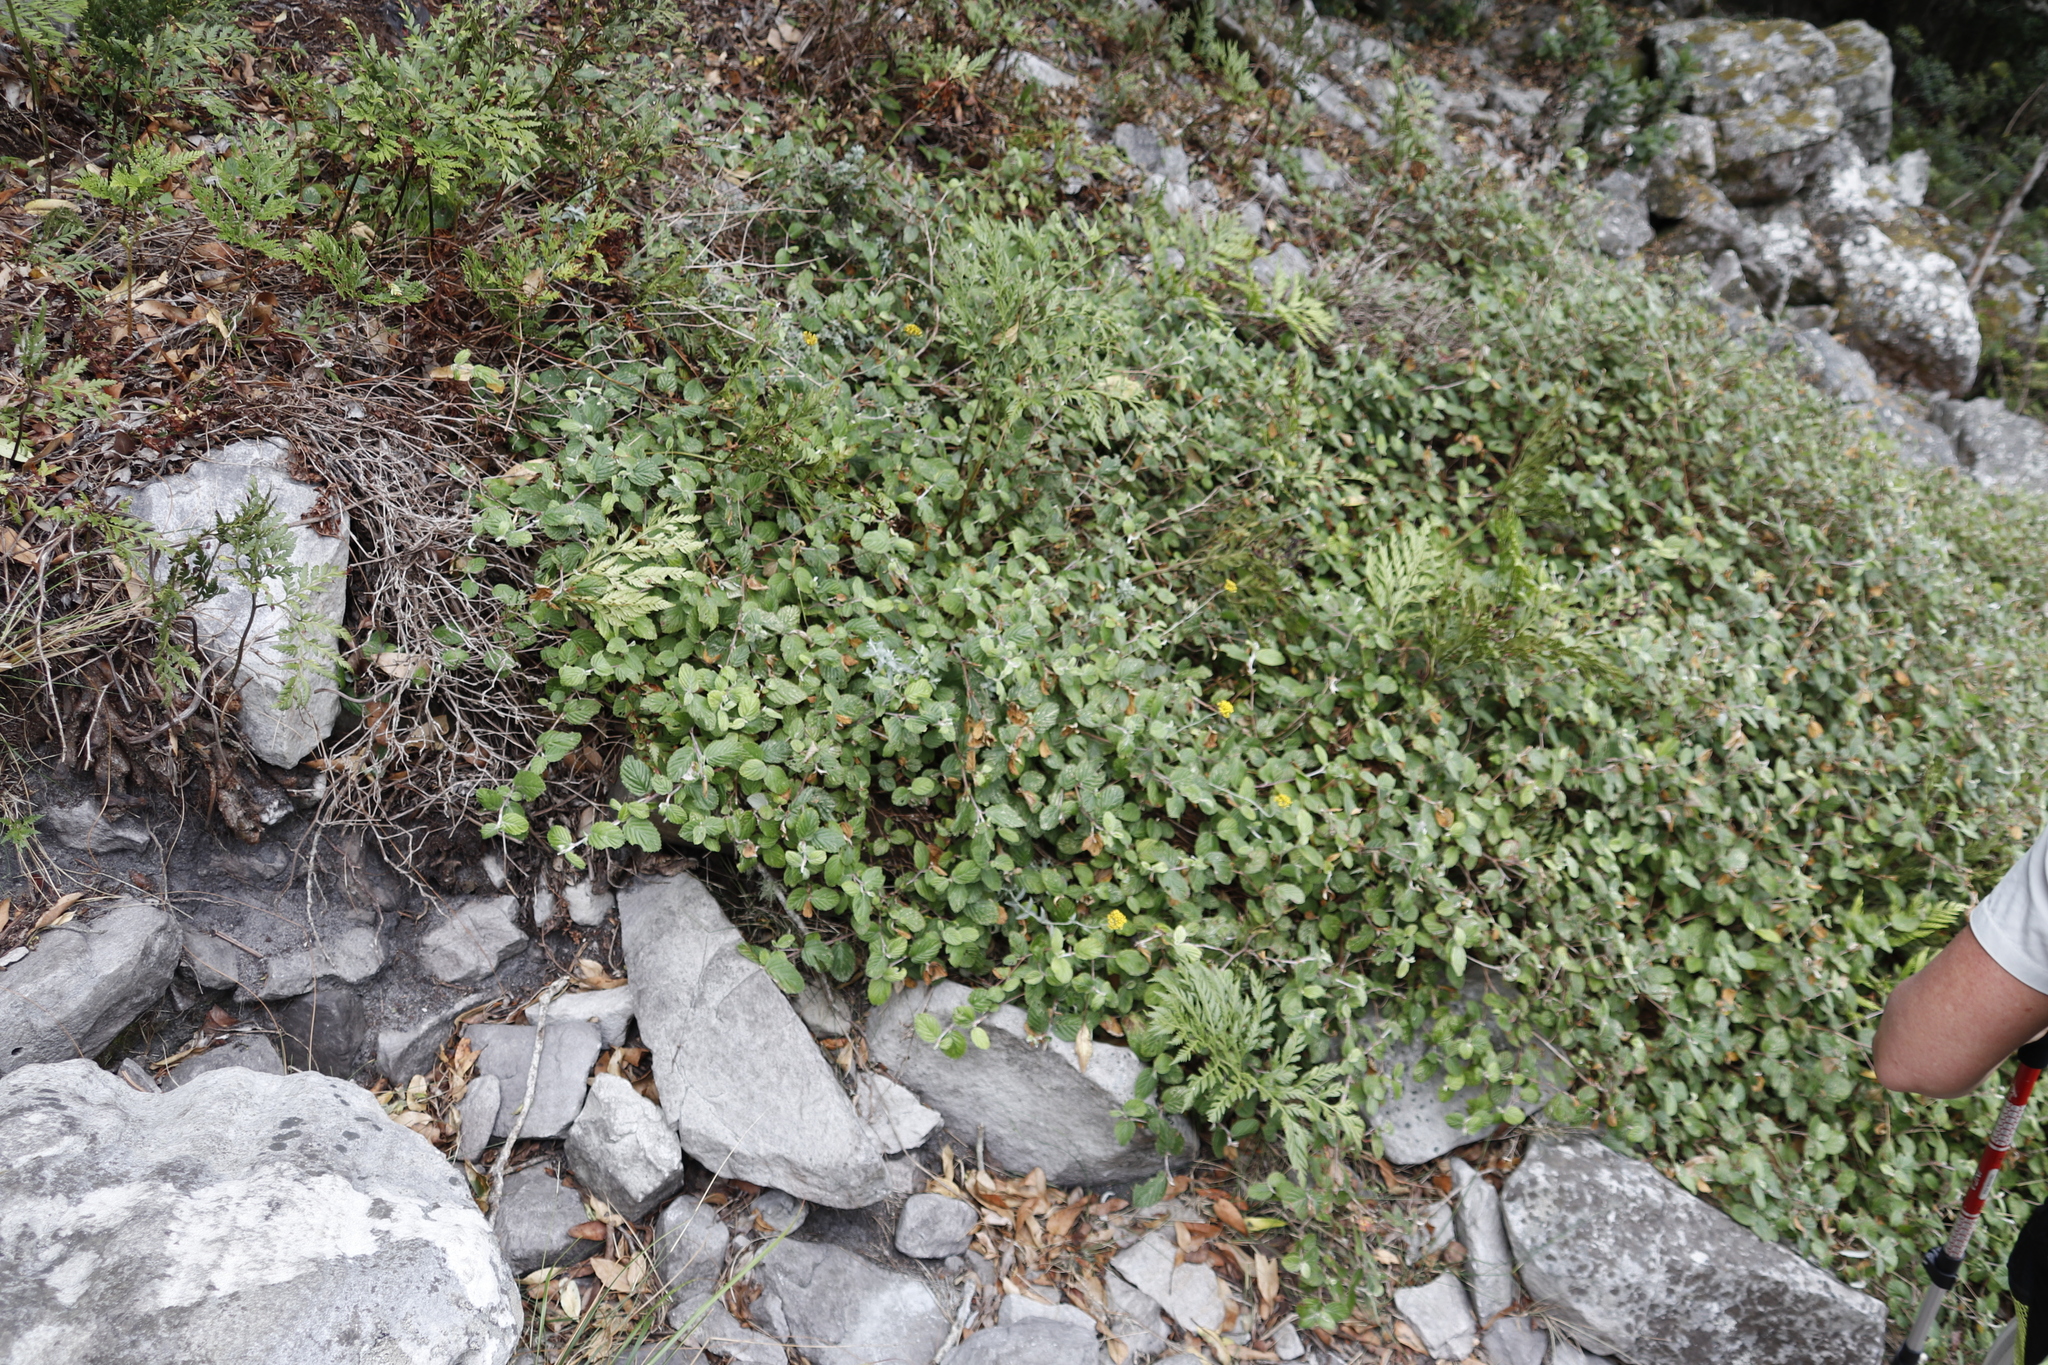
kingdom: Plantae
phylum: Tracheophyta
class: Magnoliopsida
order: Rosales
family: Rosaceae
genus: Cliffortia
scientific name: Cliffortia odorata
